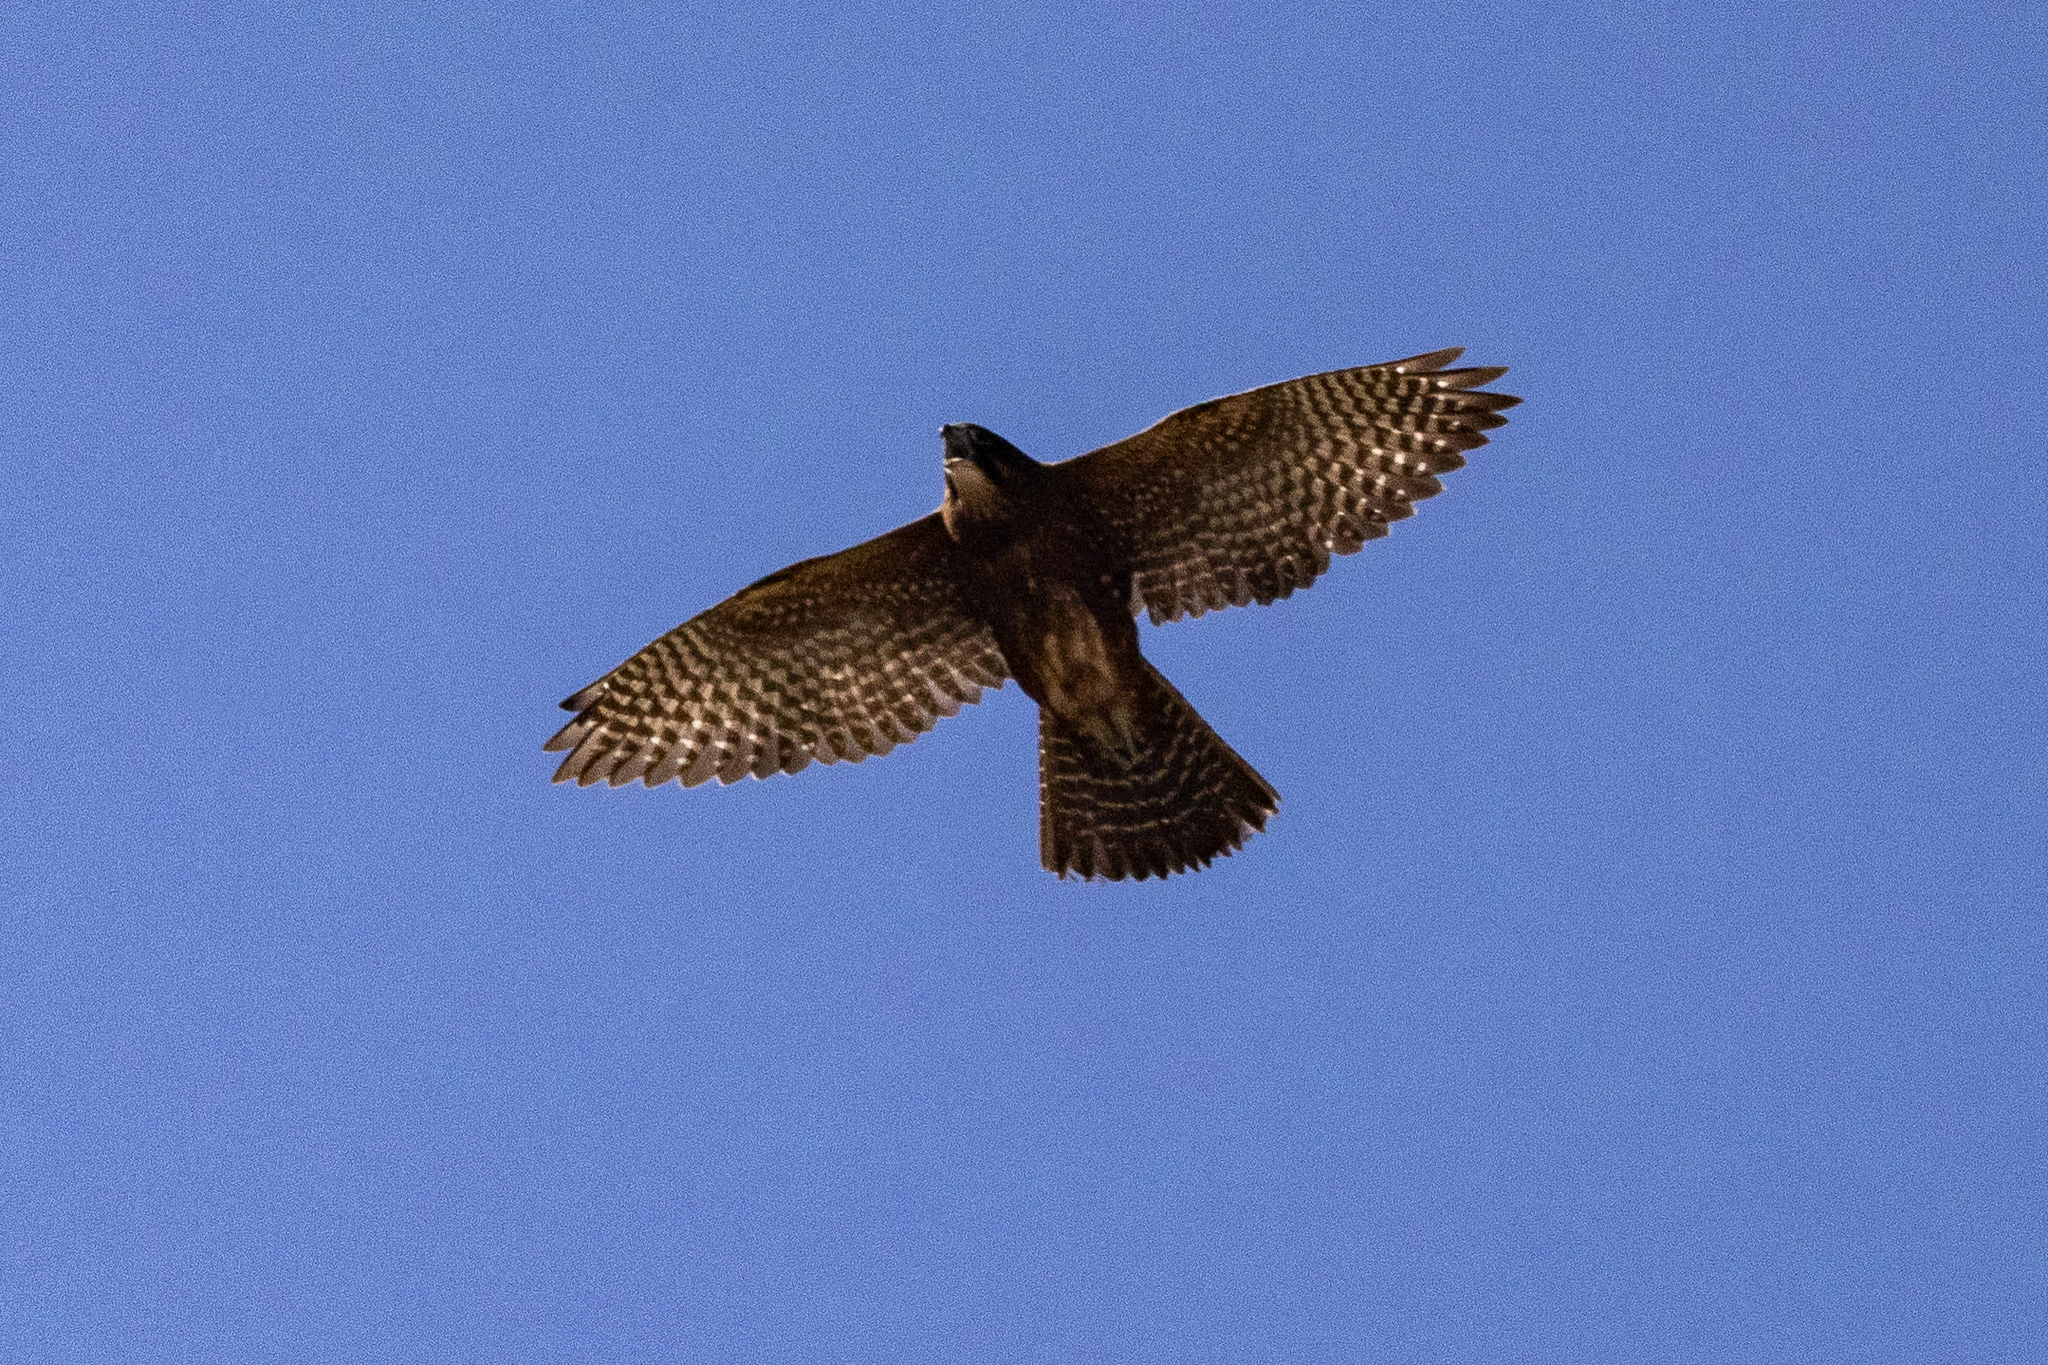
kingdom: Animalia
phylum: Chordata
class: Aves
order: Falconiformes
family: Falconidae
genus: Falco
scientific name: Falco novaeseelandiae
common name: New zealand falcon
